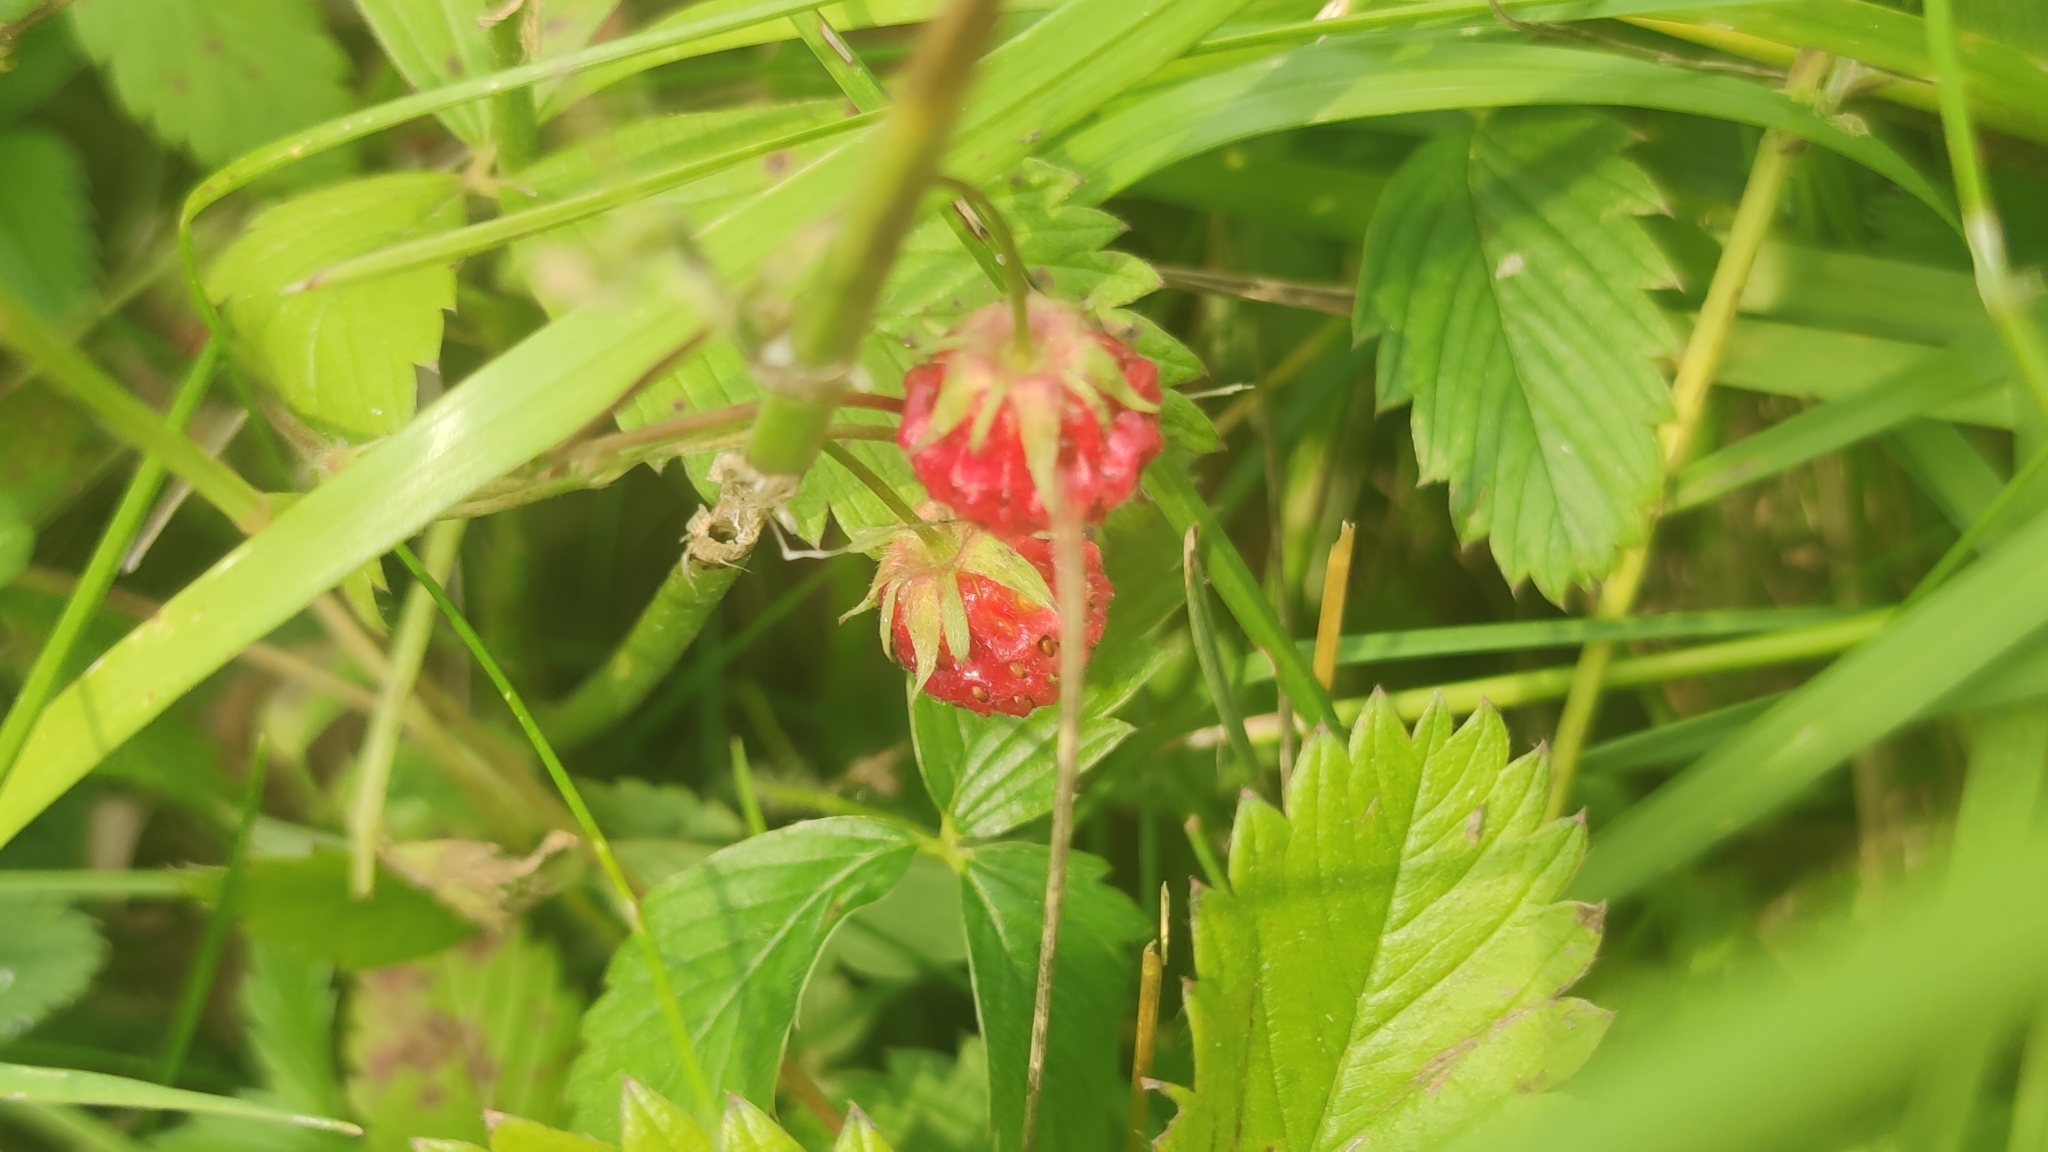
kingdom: Plantae
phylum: Tracheophyta
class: Magnoliopsida
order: Rosales
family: Rosaceae
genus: Fragaria
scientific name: Fragaria viridis
